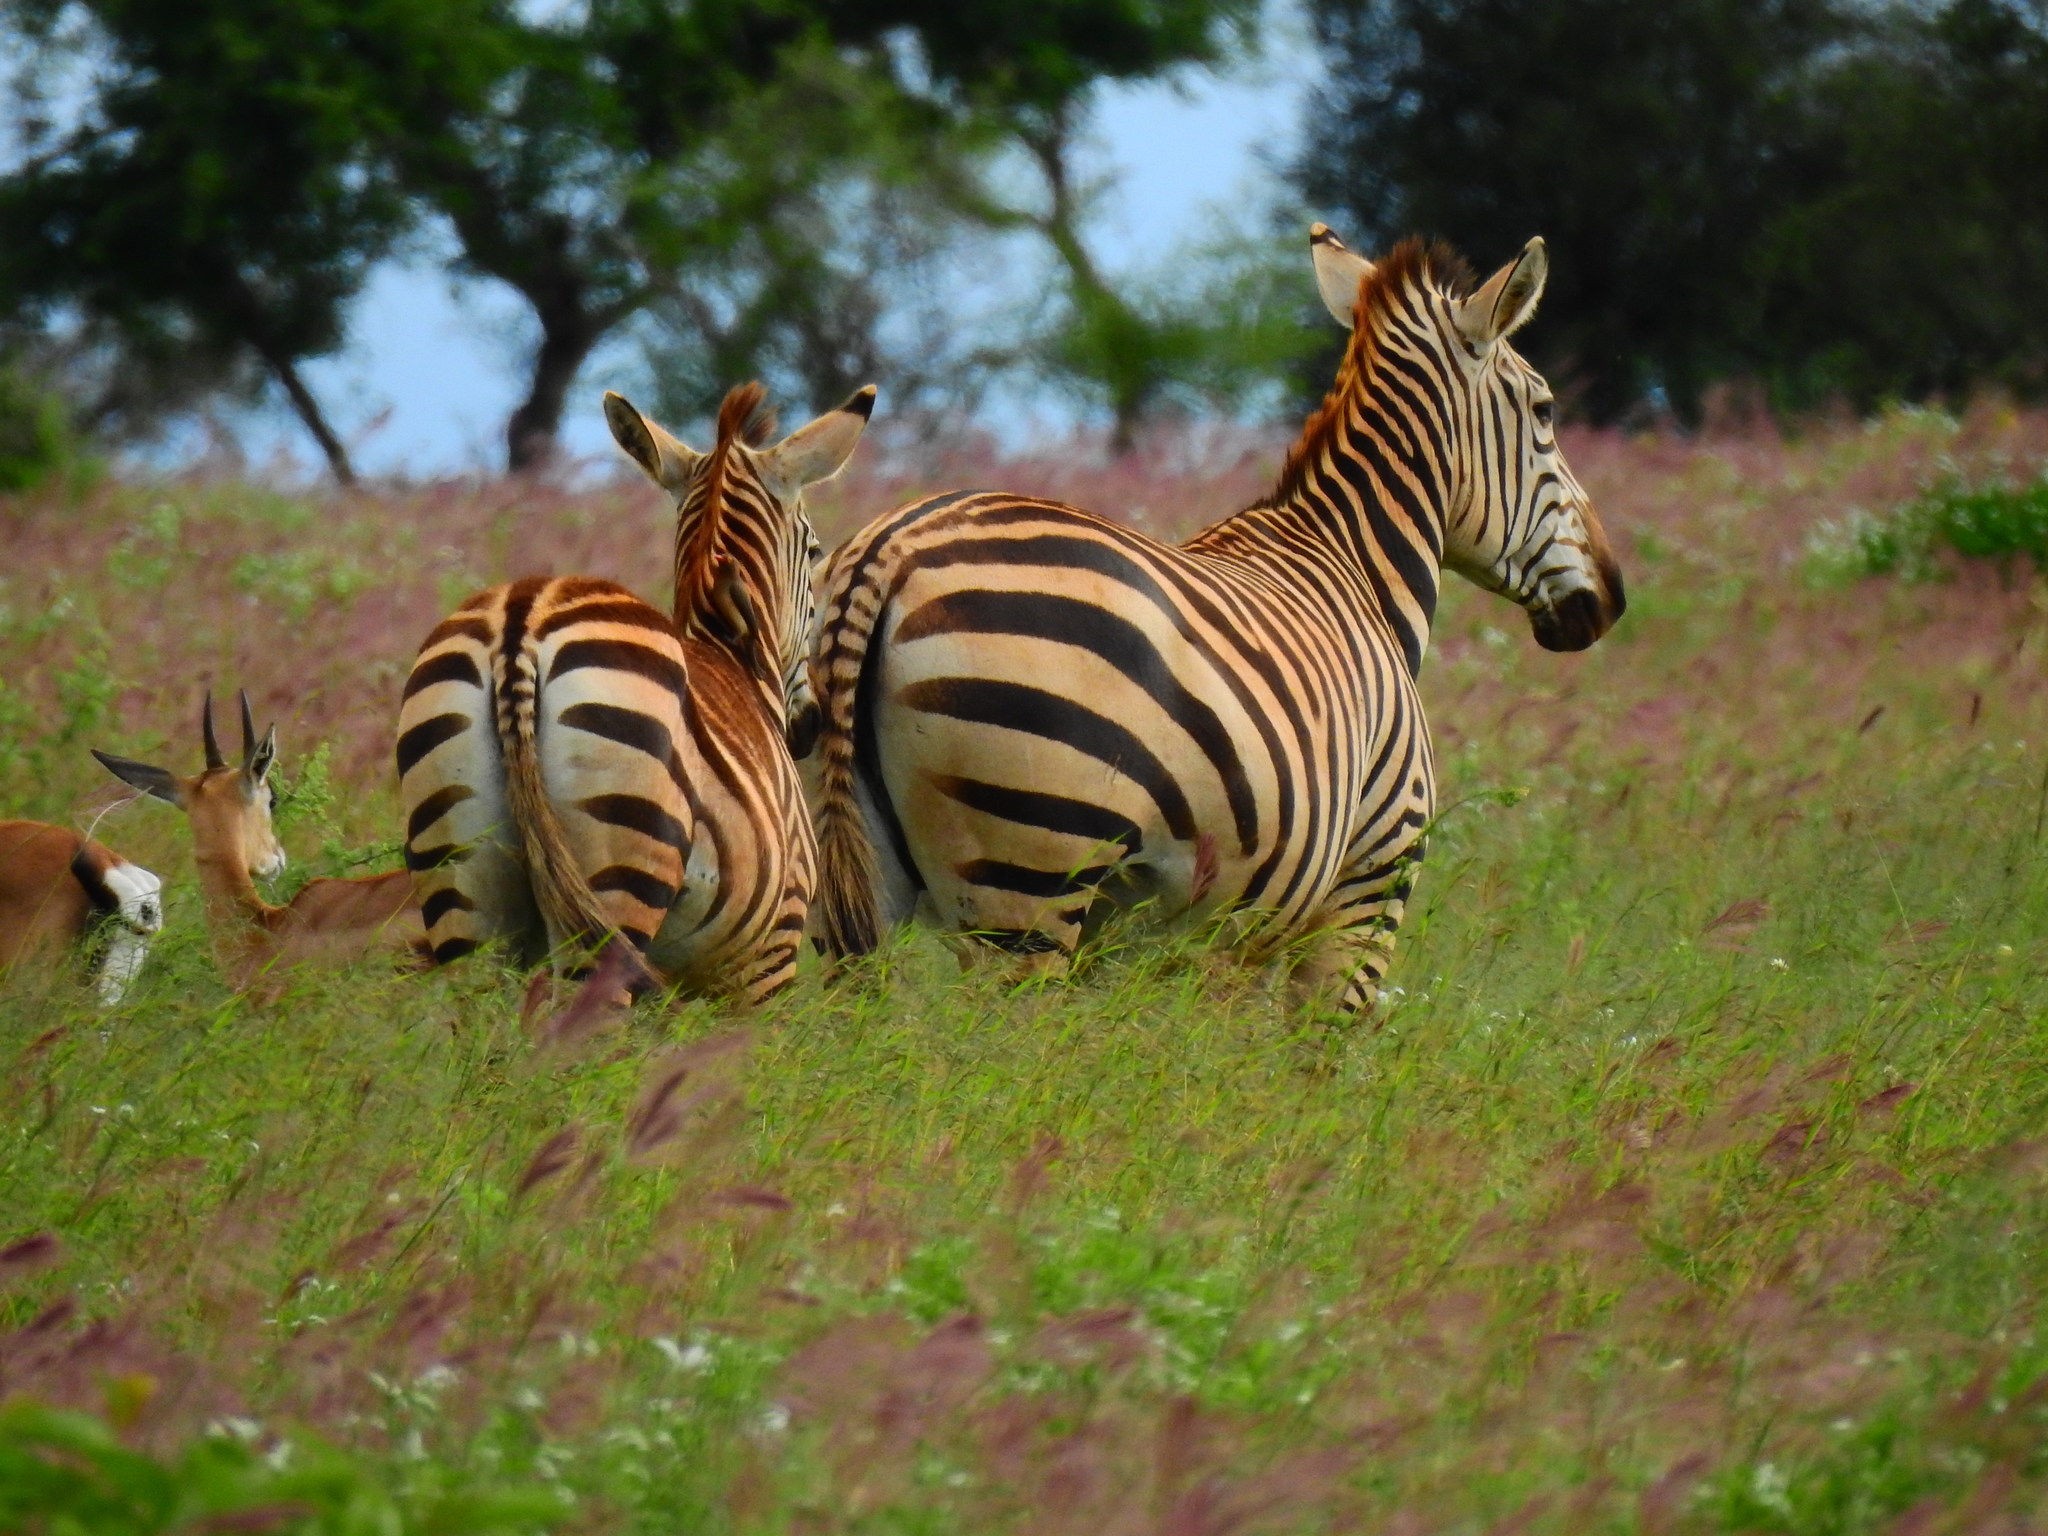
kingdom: Animalia
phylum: Chordata
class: Mammalia
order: Perissodactyla
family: Equidae
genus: Equus
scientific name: Equus quagga
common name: Plains zebra
